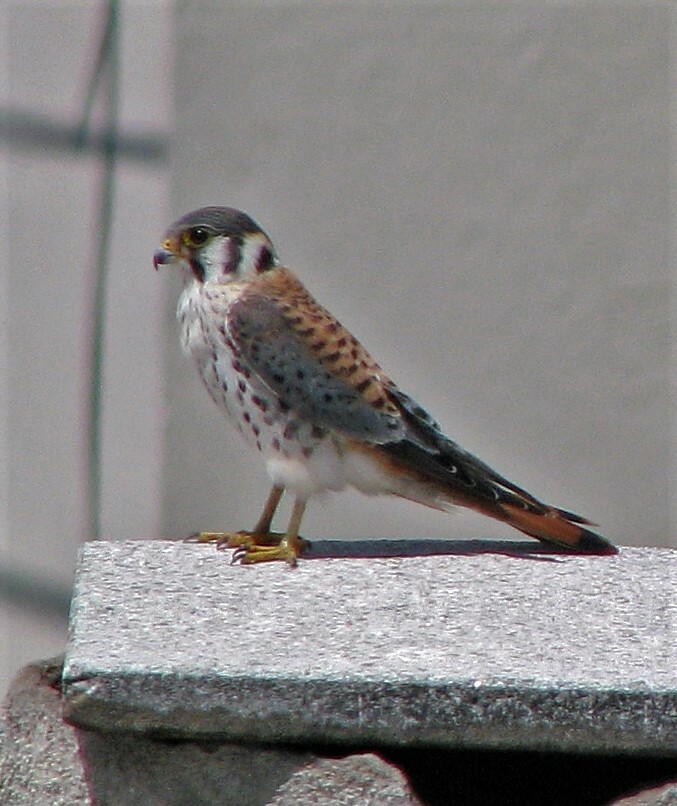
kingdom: Animalia
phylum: Chordata
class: Aves
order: Falconiformes
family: Falconidae
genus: Falco
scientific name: Falco sparverius
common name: American kestrel
